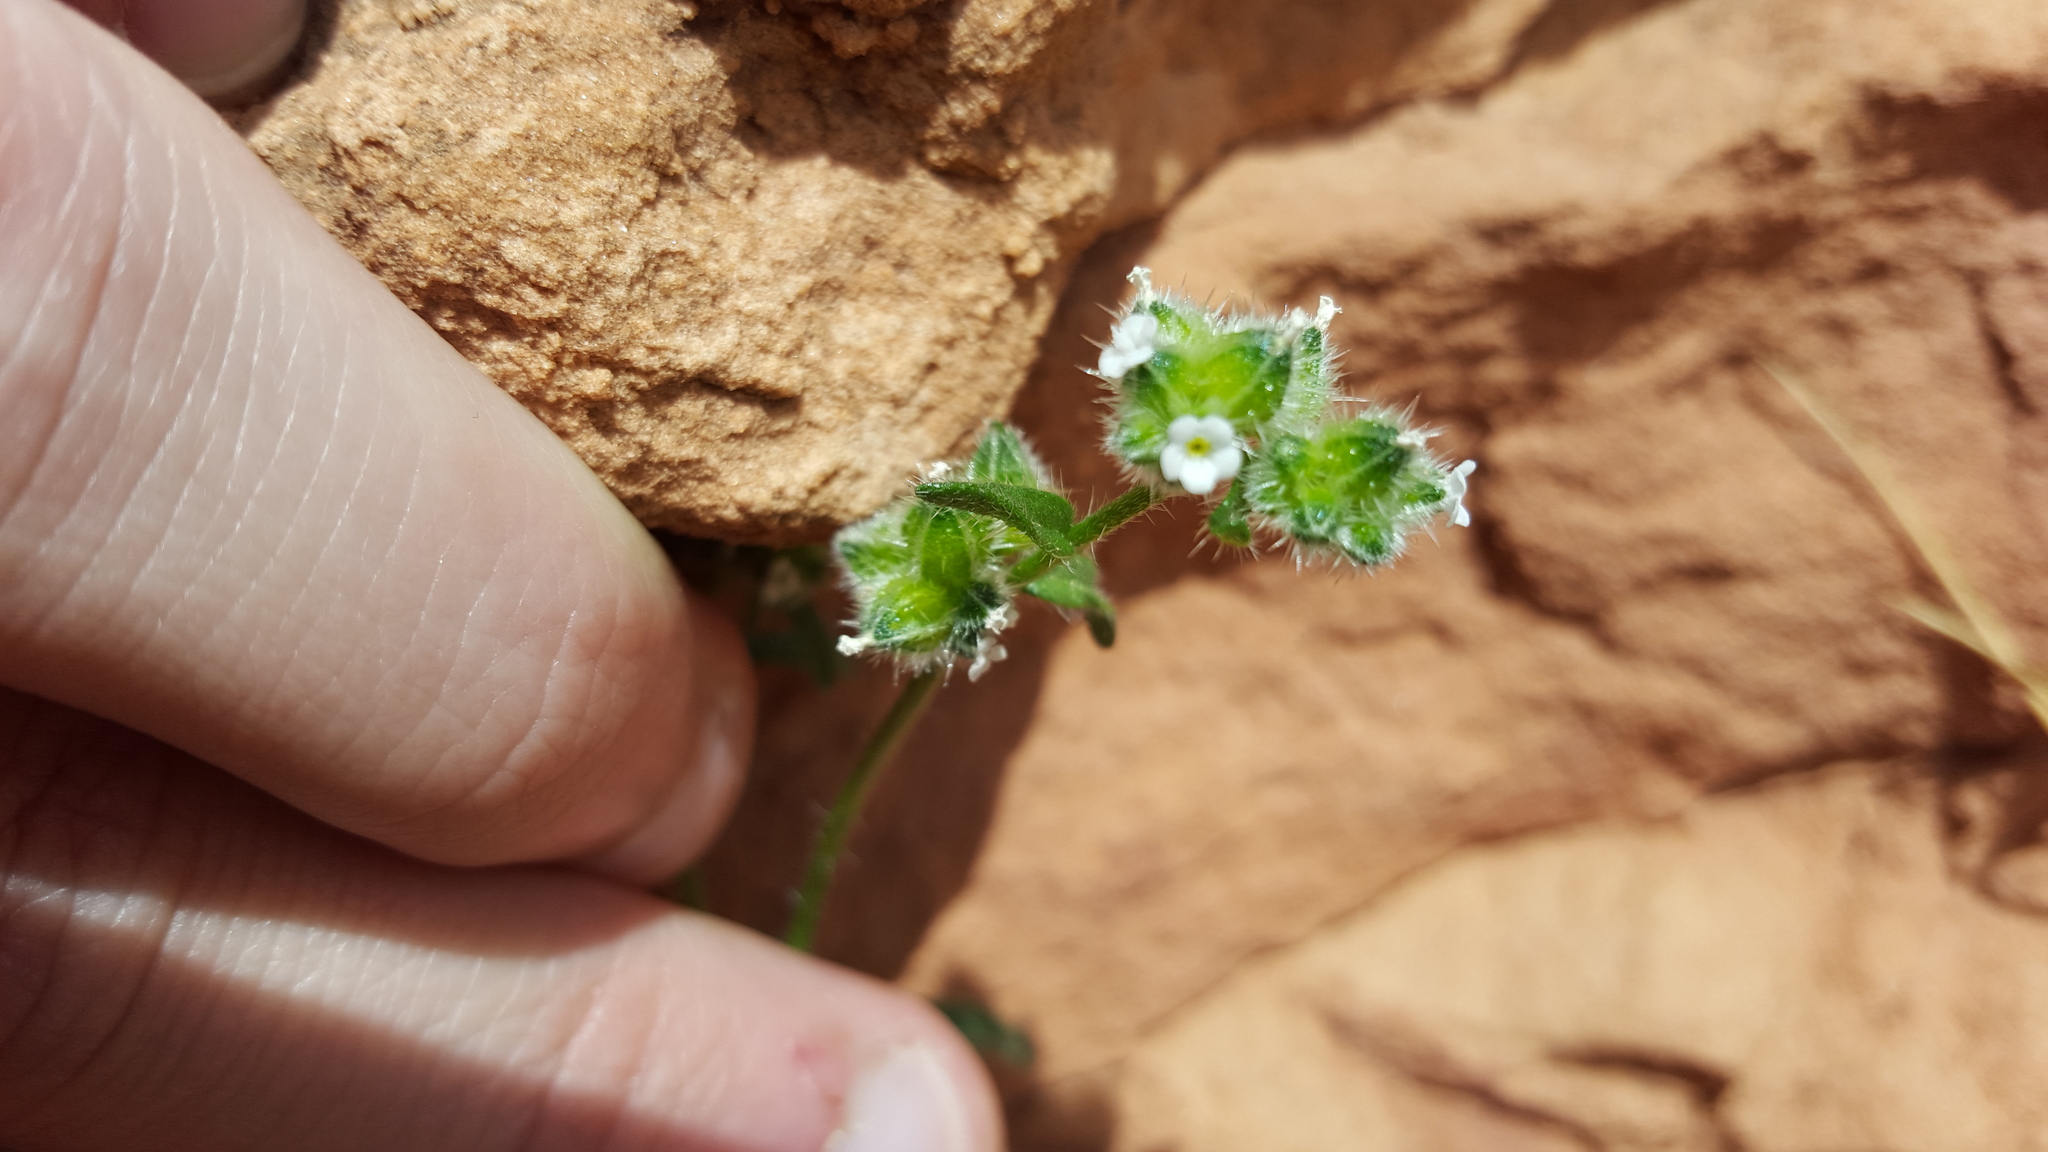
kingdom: Plantae
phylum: Tracheophyta
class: Magnoliopsida
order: Boraginales
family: Boraginaceae
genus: Cryptantha
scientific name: Cryptantha pterocarya
